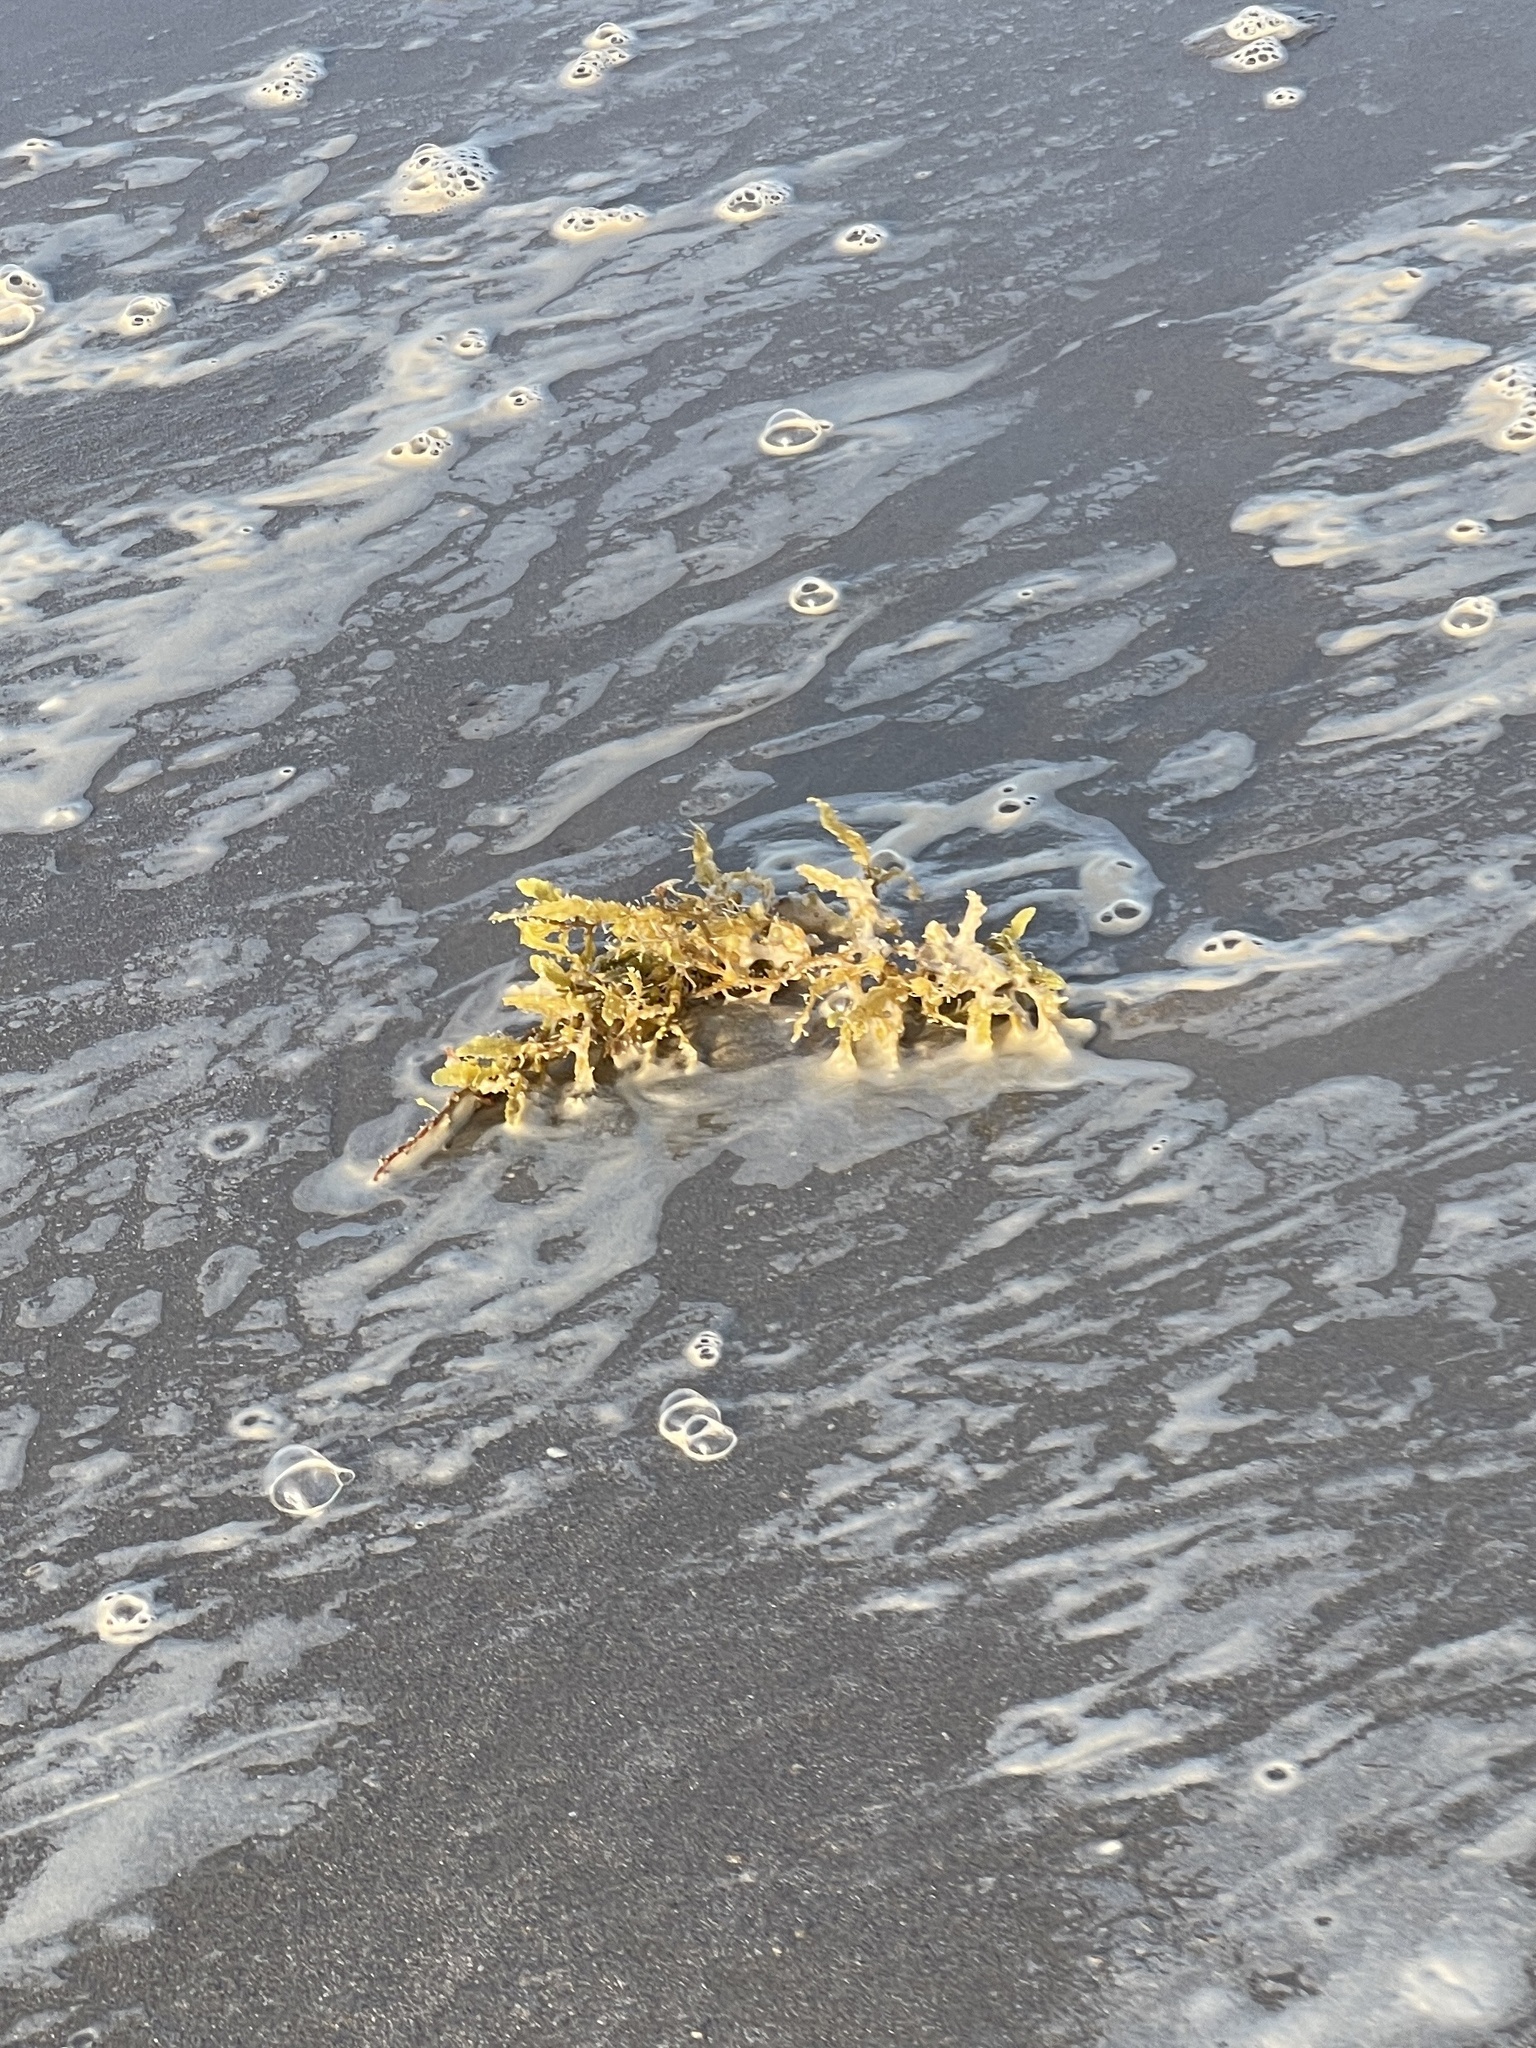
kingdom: Chromista
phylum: Ochrophyta
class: Phaeophyceae
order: Fucales
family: Sargassaceae
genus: Sargassum
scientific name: Sargassum fluitans
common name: Sargassum seaweed
